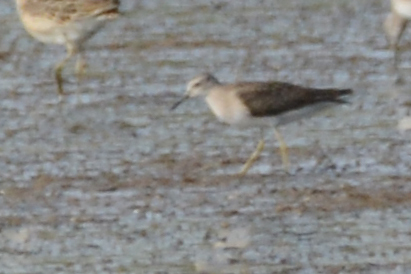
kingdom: Animalia
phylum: Chordata
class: Aves
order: Charadriiformes
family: Scolopacidae
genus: Tringa
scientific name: Tringa glareola
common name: Wood sandpiper
